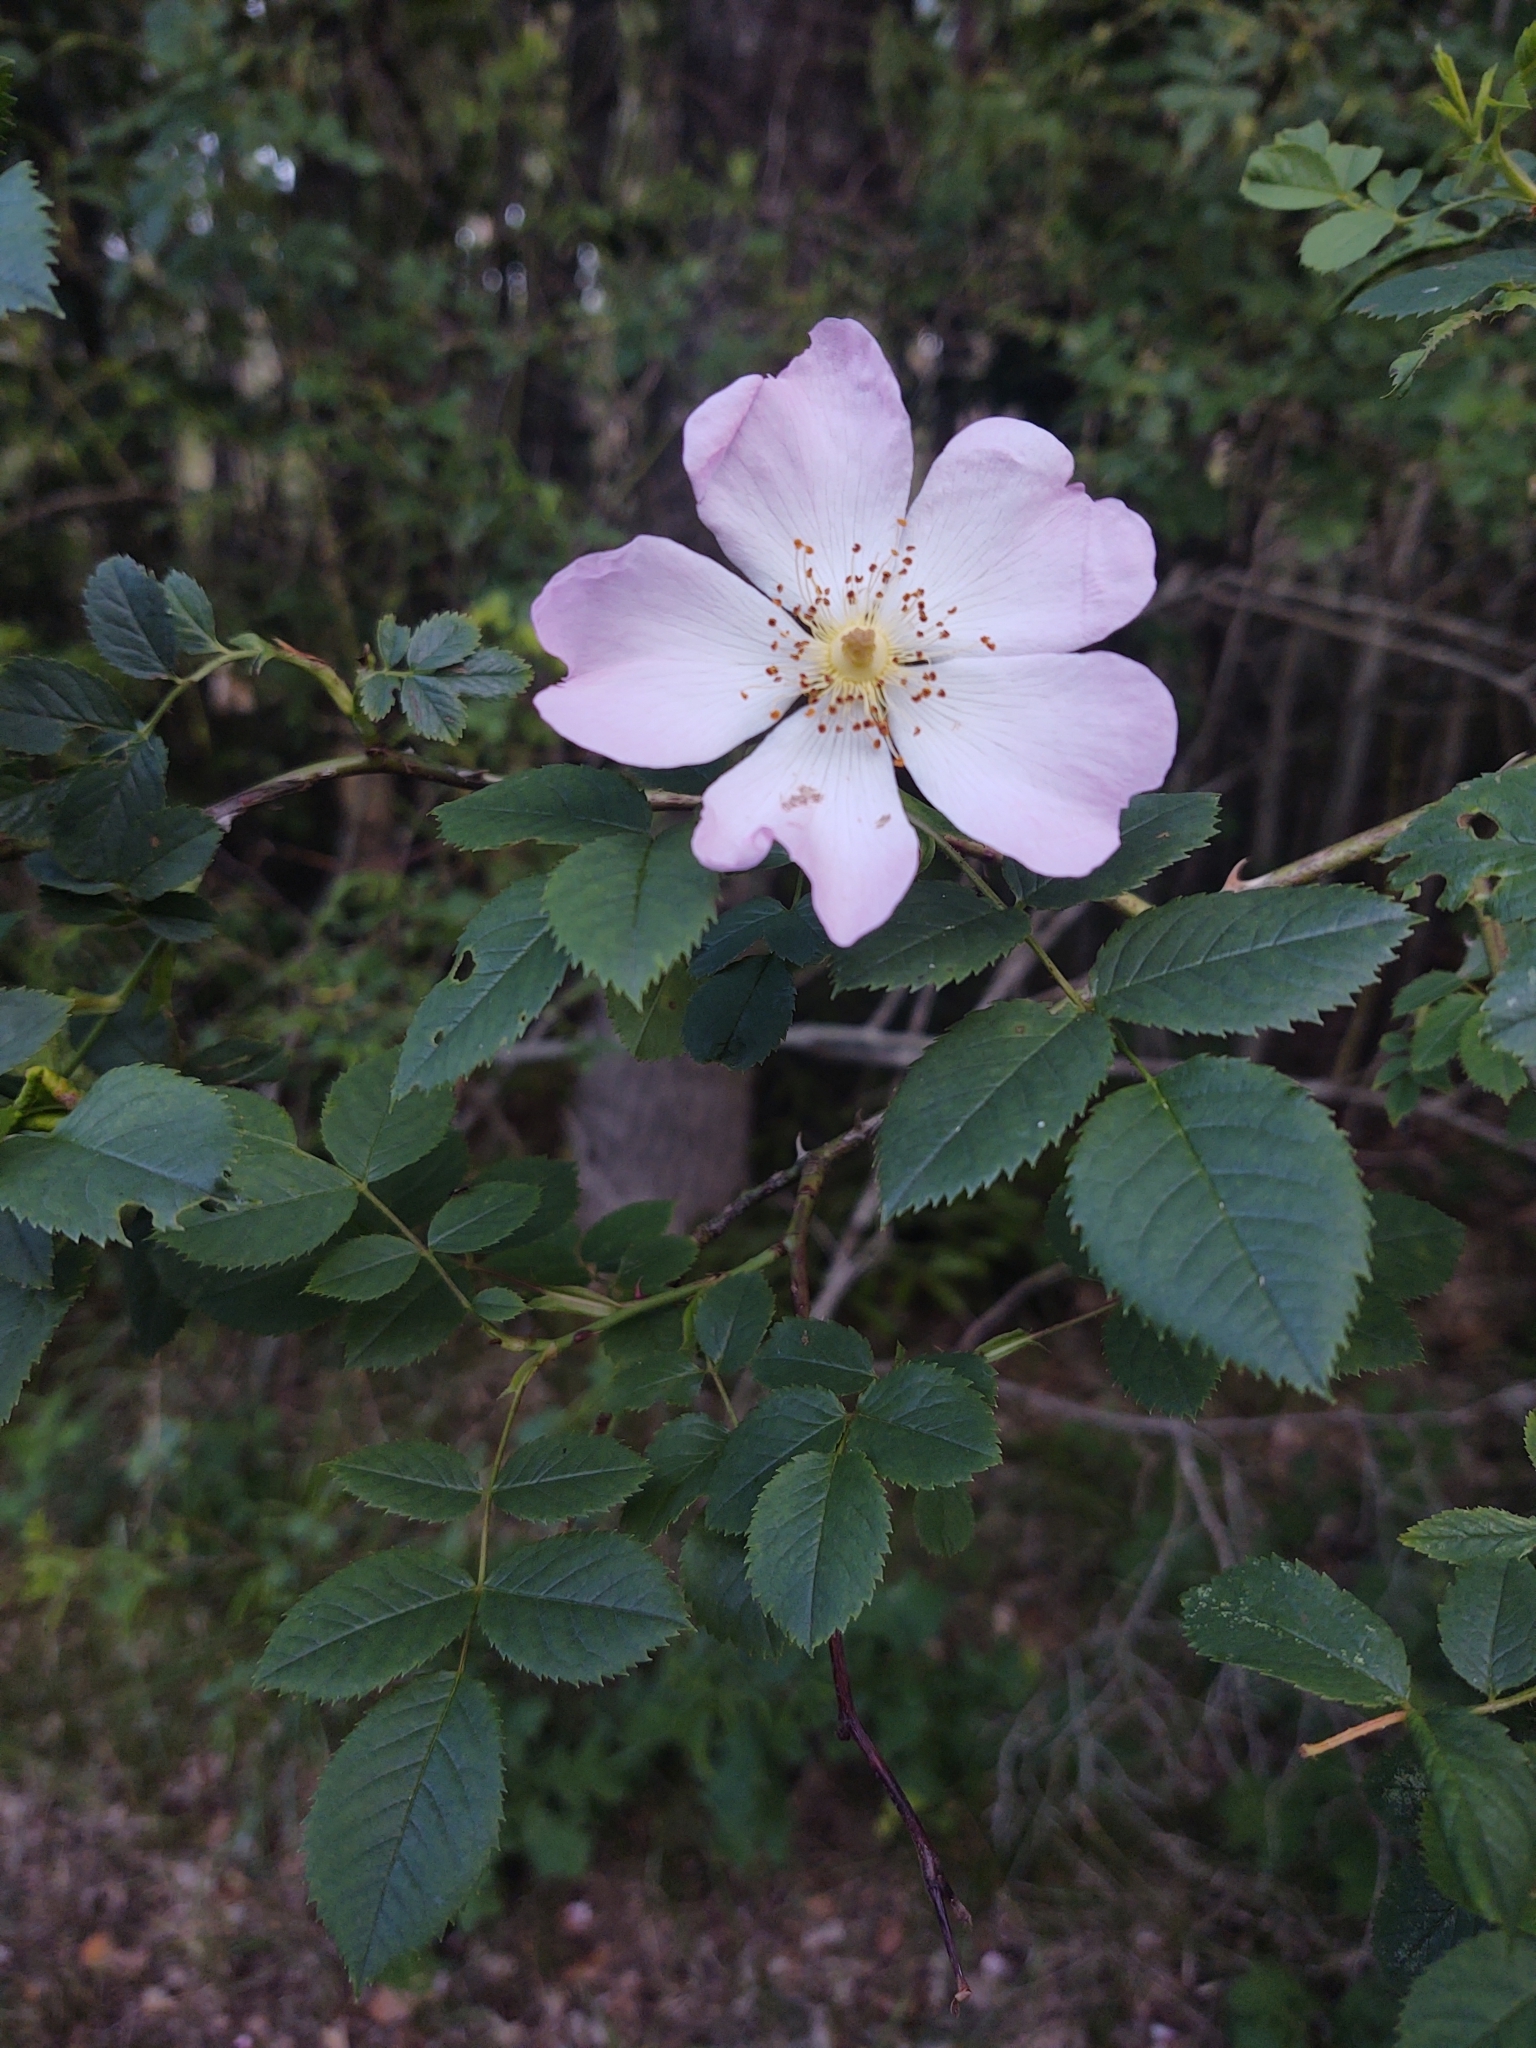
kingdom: Plantae
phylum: Tracheophyta
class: Magnoliopsida
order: Rosales
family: Rosaceae
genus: Rosa
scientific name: Rosa canina
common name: Dog rose
